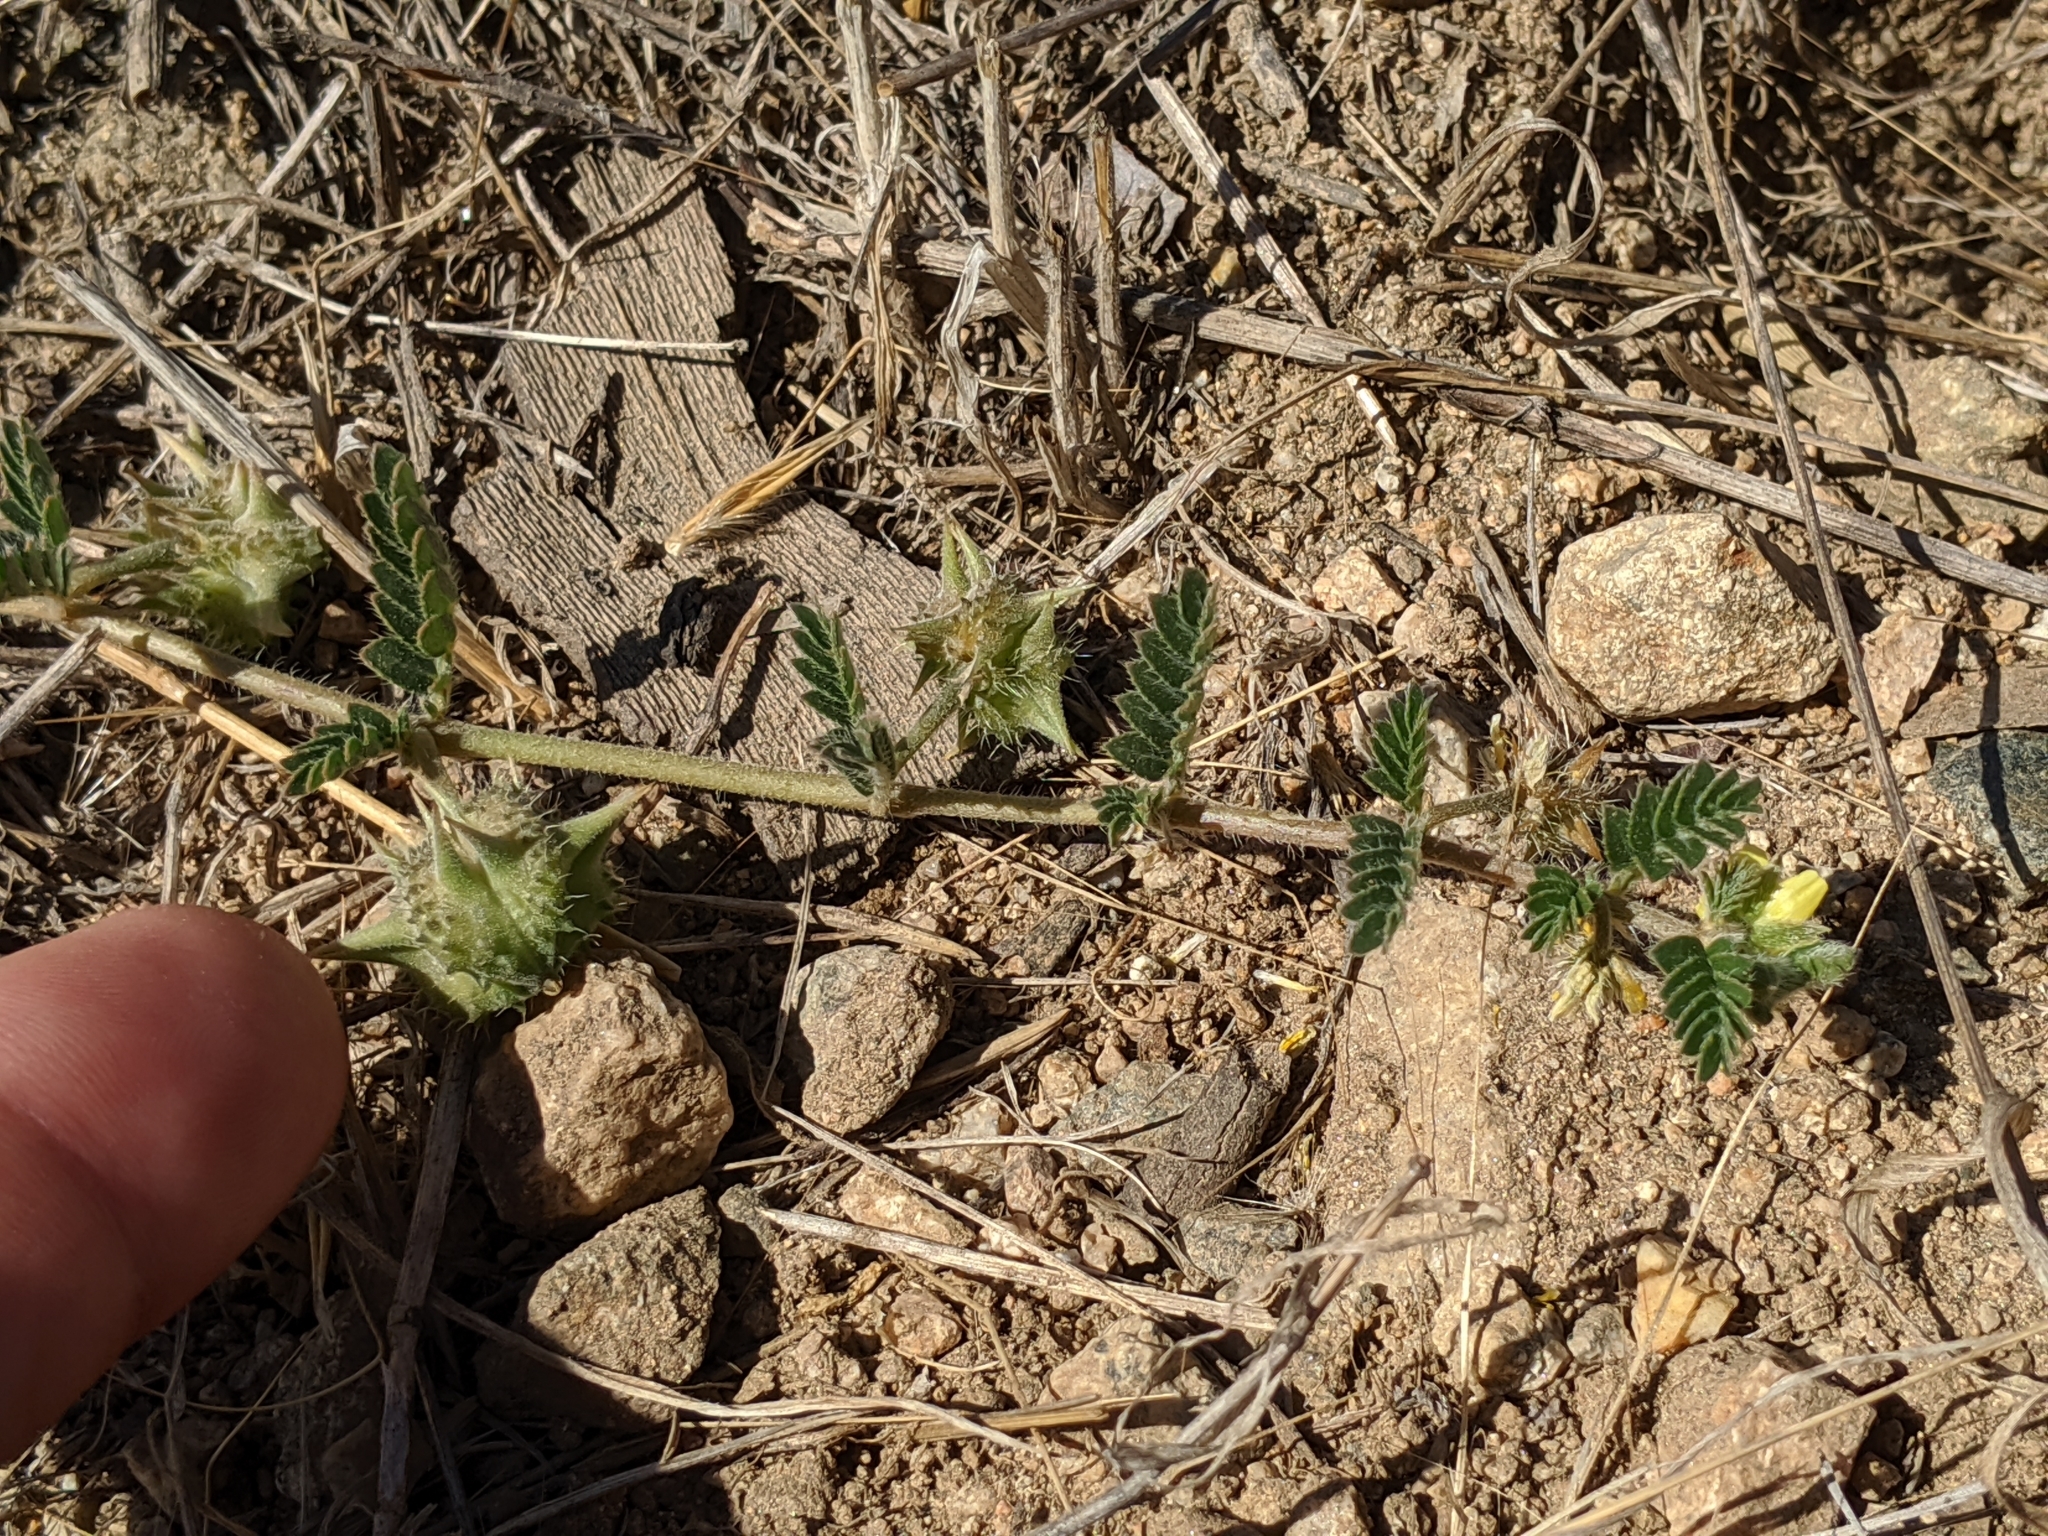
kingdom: Plantae
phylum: Tracheophyta
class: Magnoliopsida
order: Zygophyllales
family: Zygophyllaceae
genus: Tribulus
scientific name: Tribulus terrestris
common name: Puncturevine
